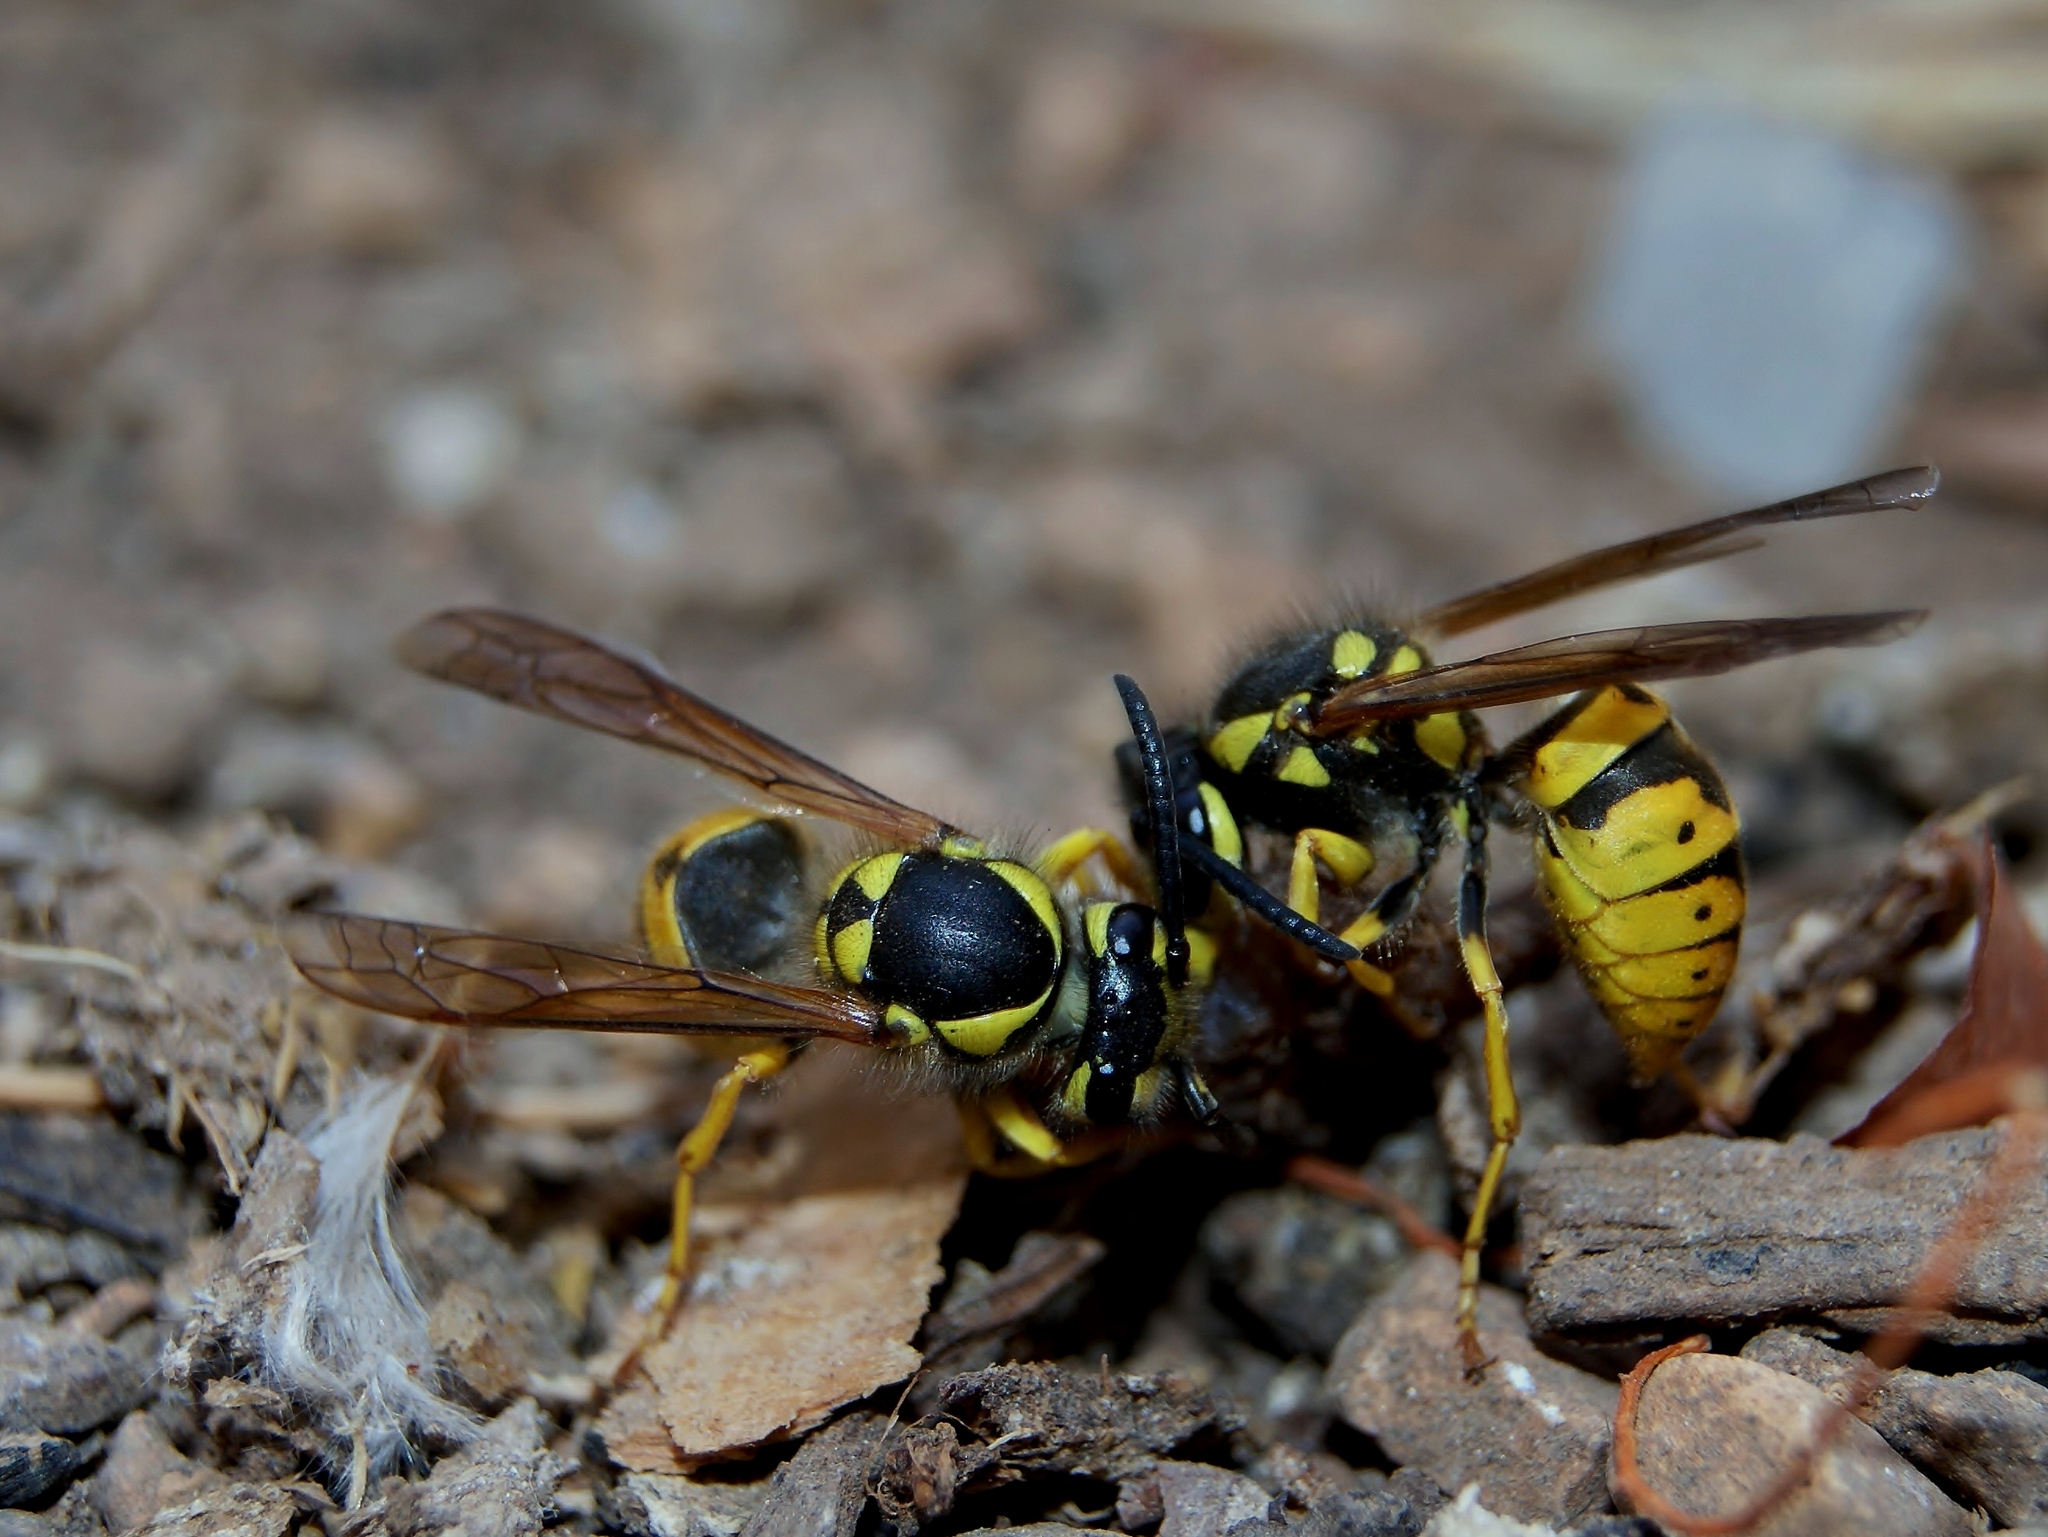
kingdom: Animalia
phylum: Arthropoda
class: Insecta
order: Hymenoptera
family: Vespidae
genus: Vespula
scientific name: Vespula germanica
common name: German wasp
